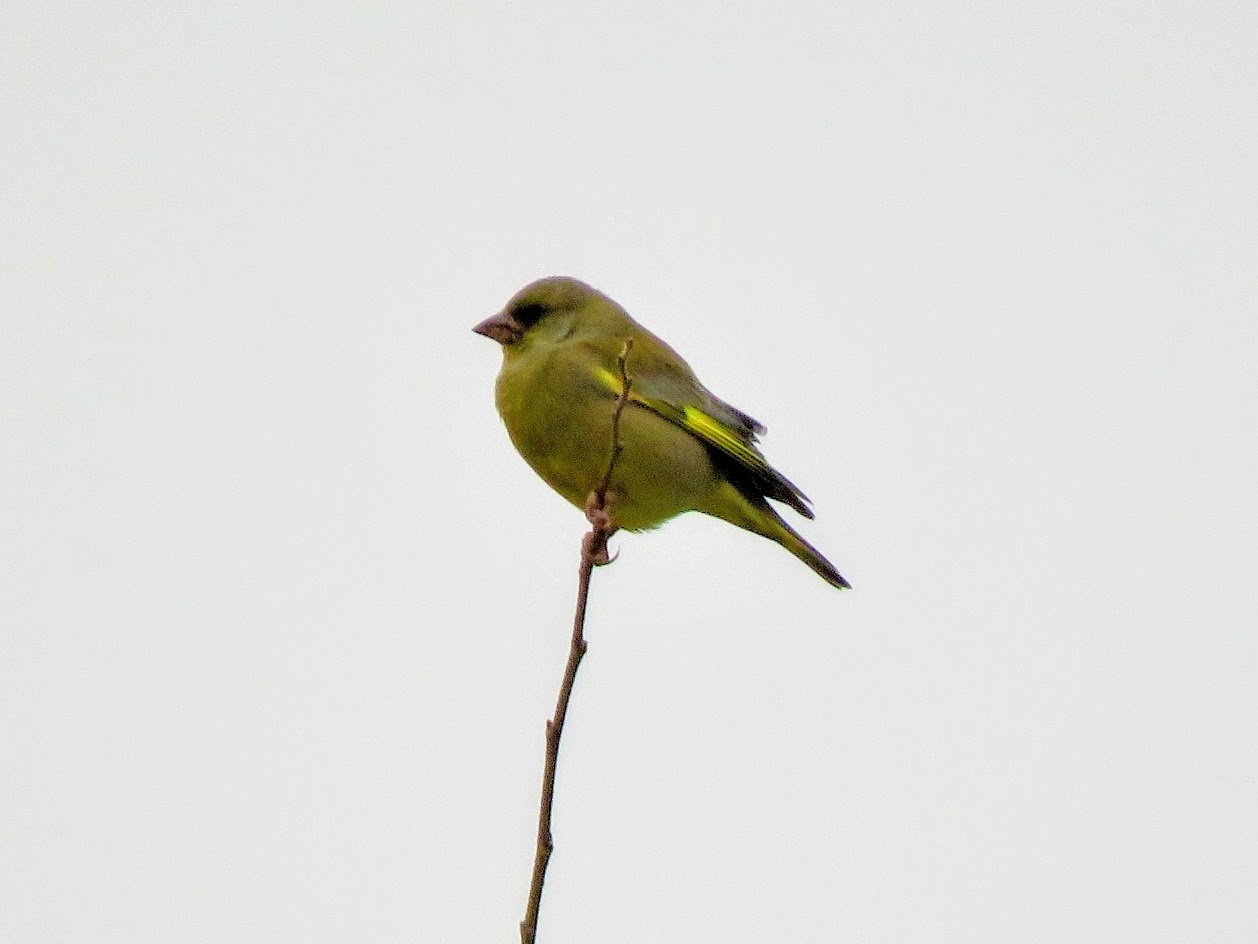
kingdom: Plantae
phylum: Tracheophyta
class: Liliopsida
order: Poales
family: Poaceae
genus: Chloris
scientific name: Chloris chloris
